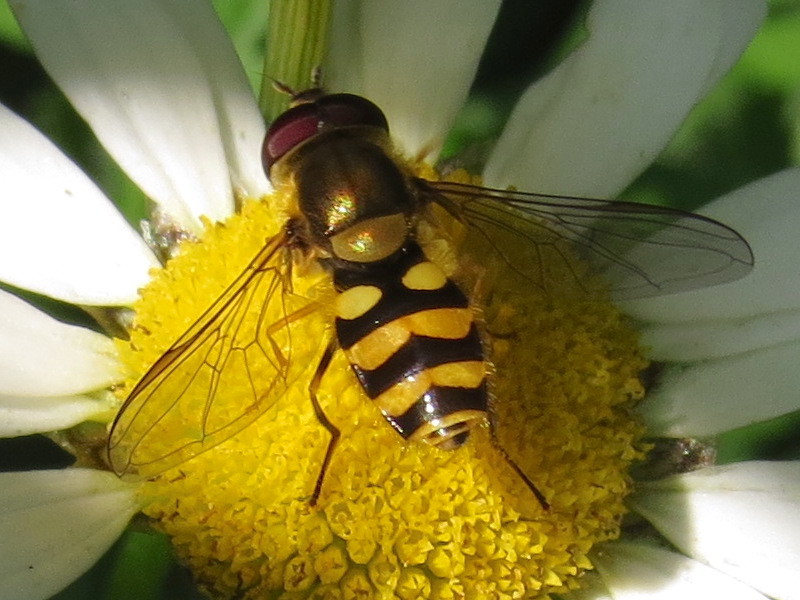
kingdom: Animalia
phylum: Arthropoda
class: Insecta
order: Diptera
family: Syrphidae
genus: Syrphus
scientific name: Syrphus
